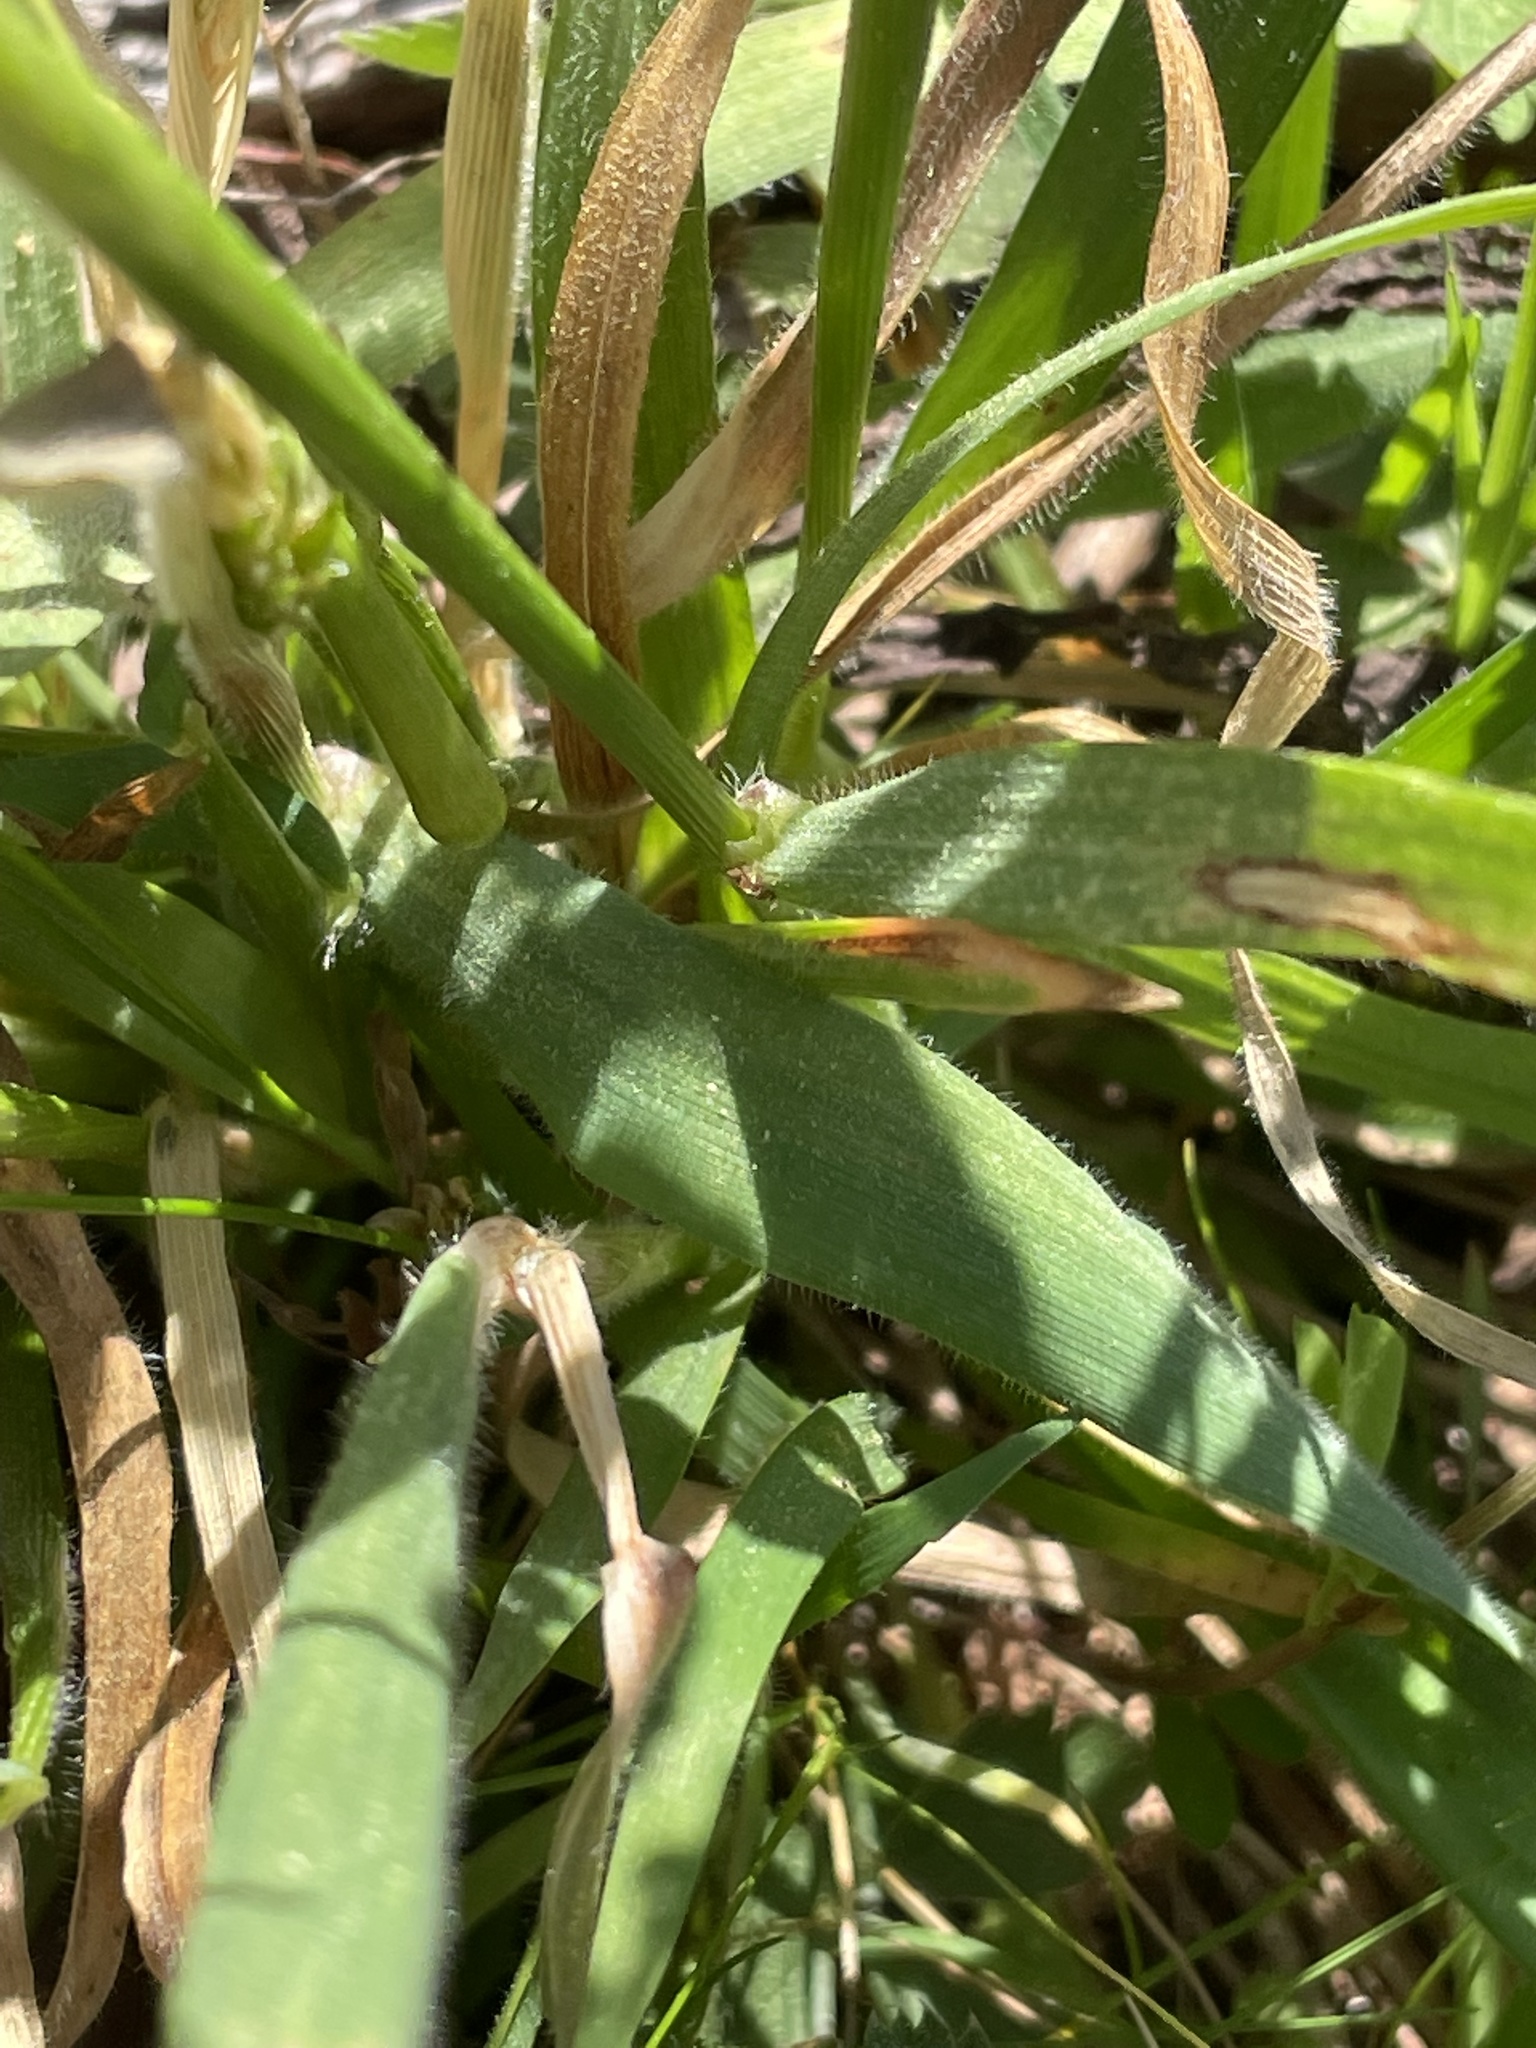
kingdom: Plantae
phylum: Tracheophyta
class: Liliopsida
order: Poales
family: Poaceae
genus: Anthoxanthum
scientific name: Anthoxanthum odoratum
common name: Sweet vernalgrass
